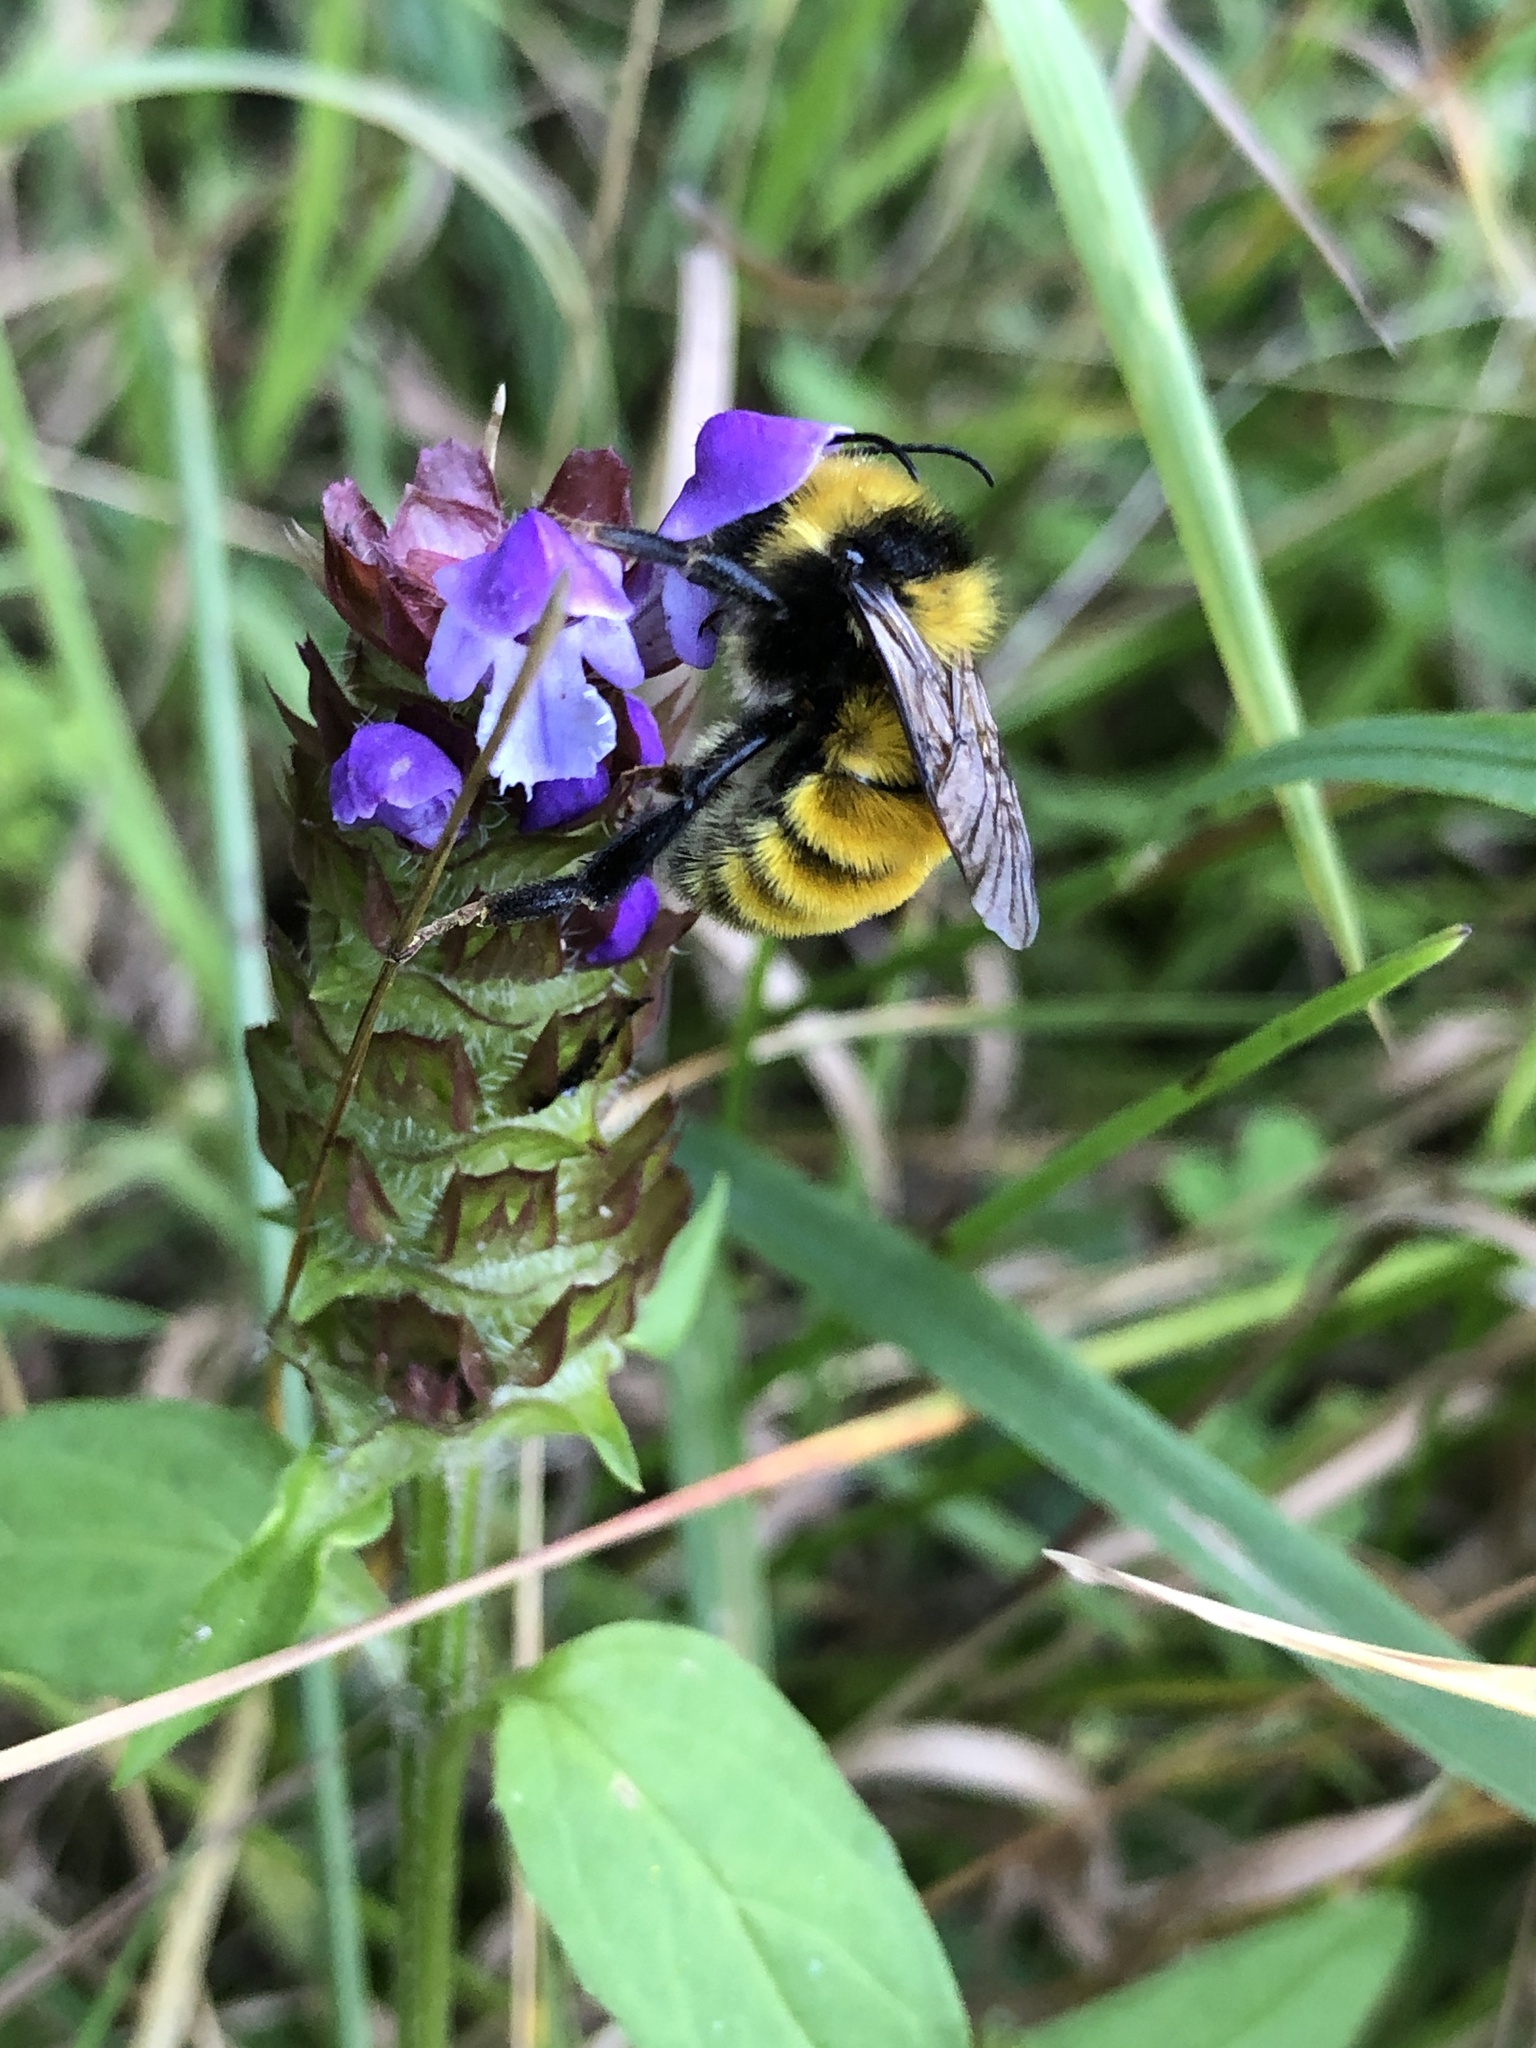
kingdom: Animalia
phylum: Arthropoda
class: Insecta
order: Hymenoptera
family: Apidae
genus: Bombus
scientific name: Bombus borealis
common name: Northern amber bumble bee
